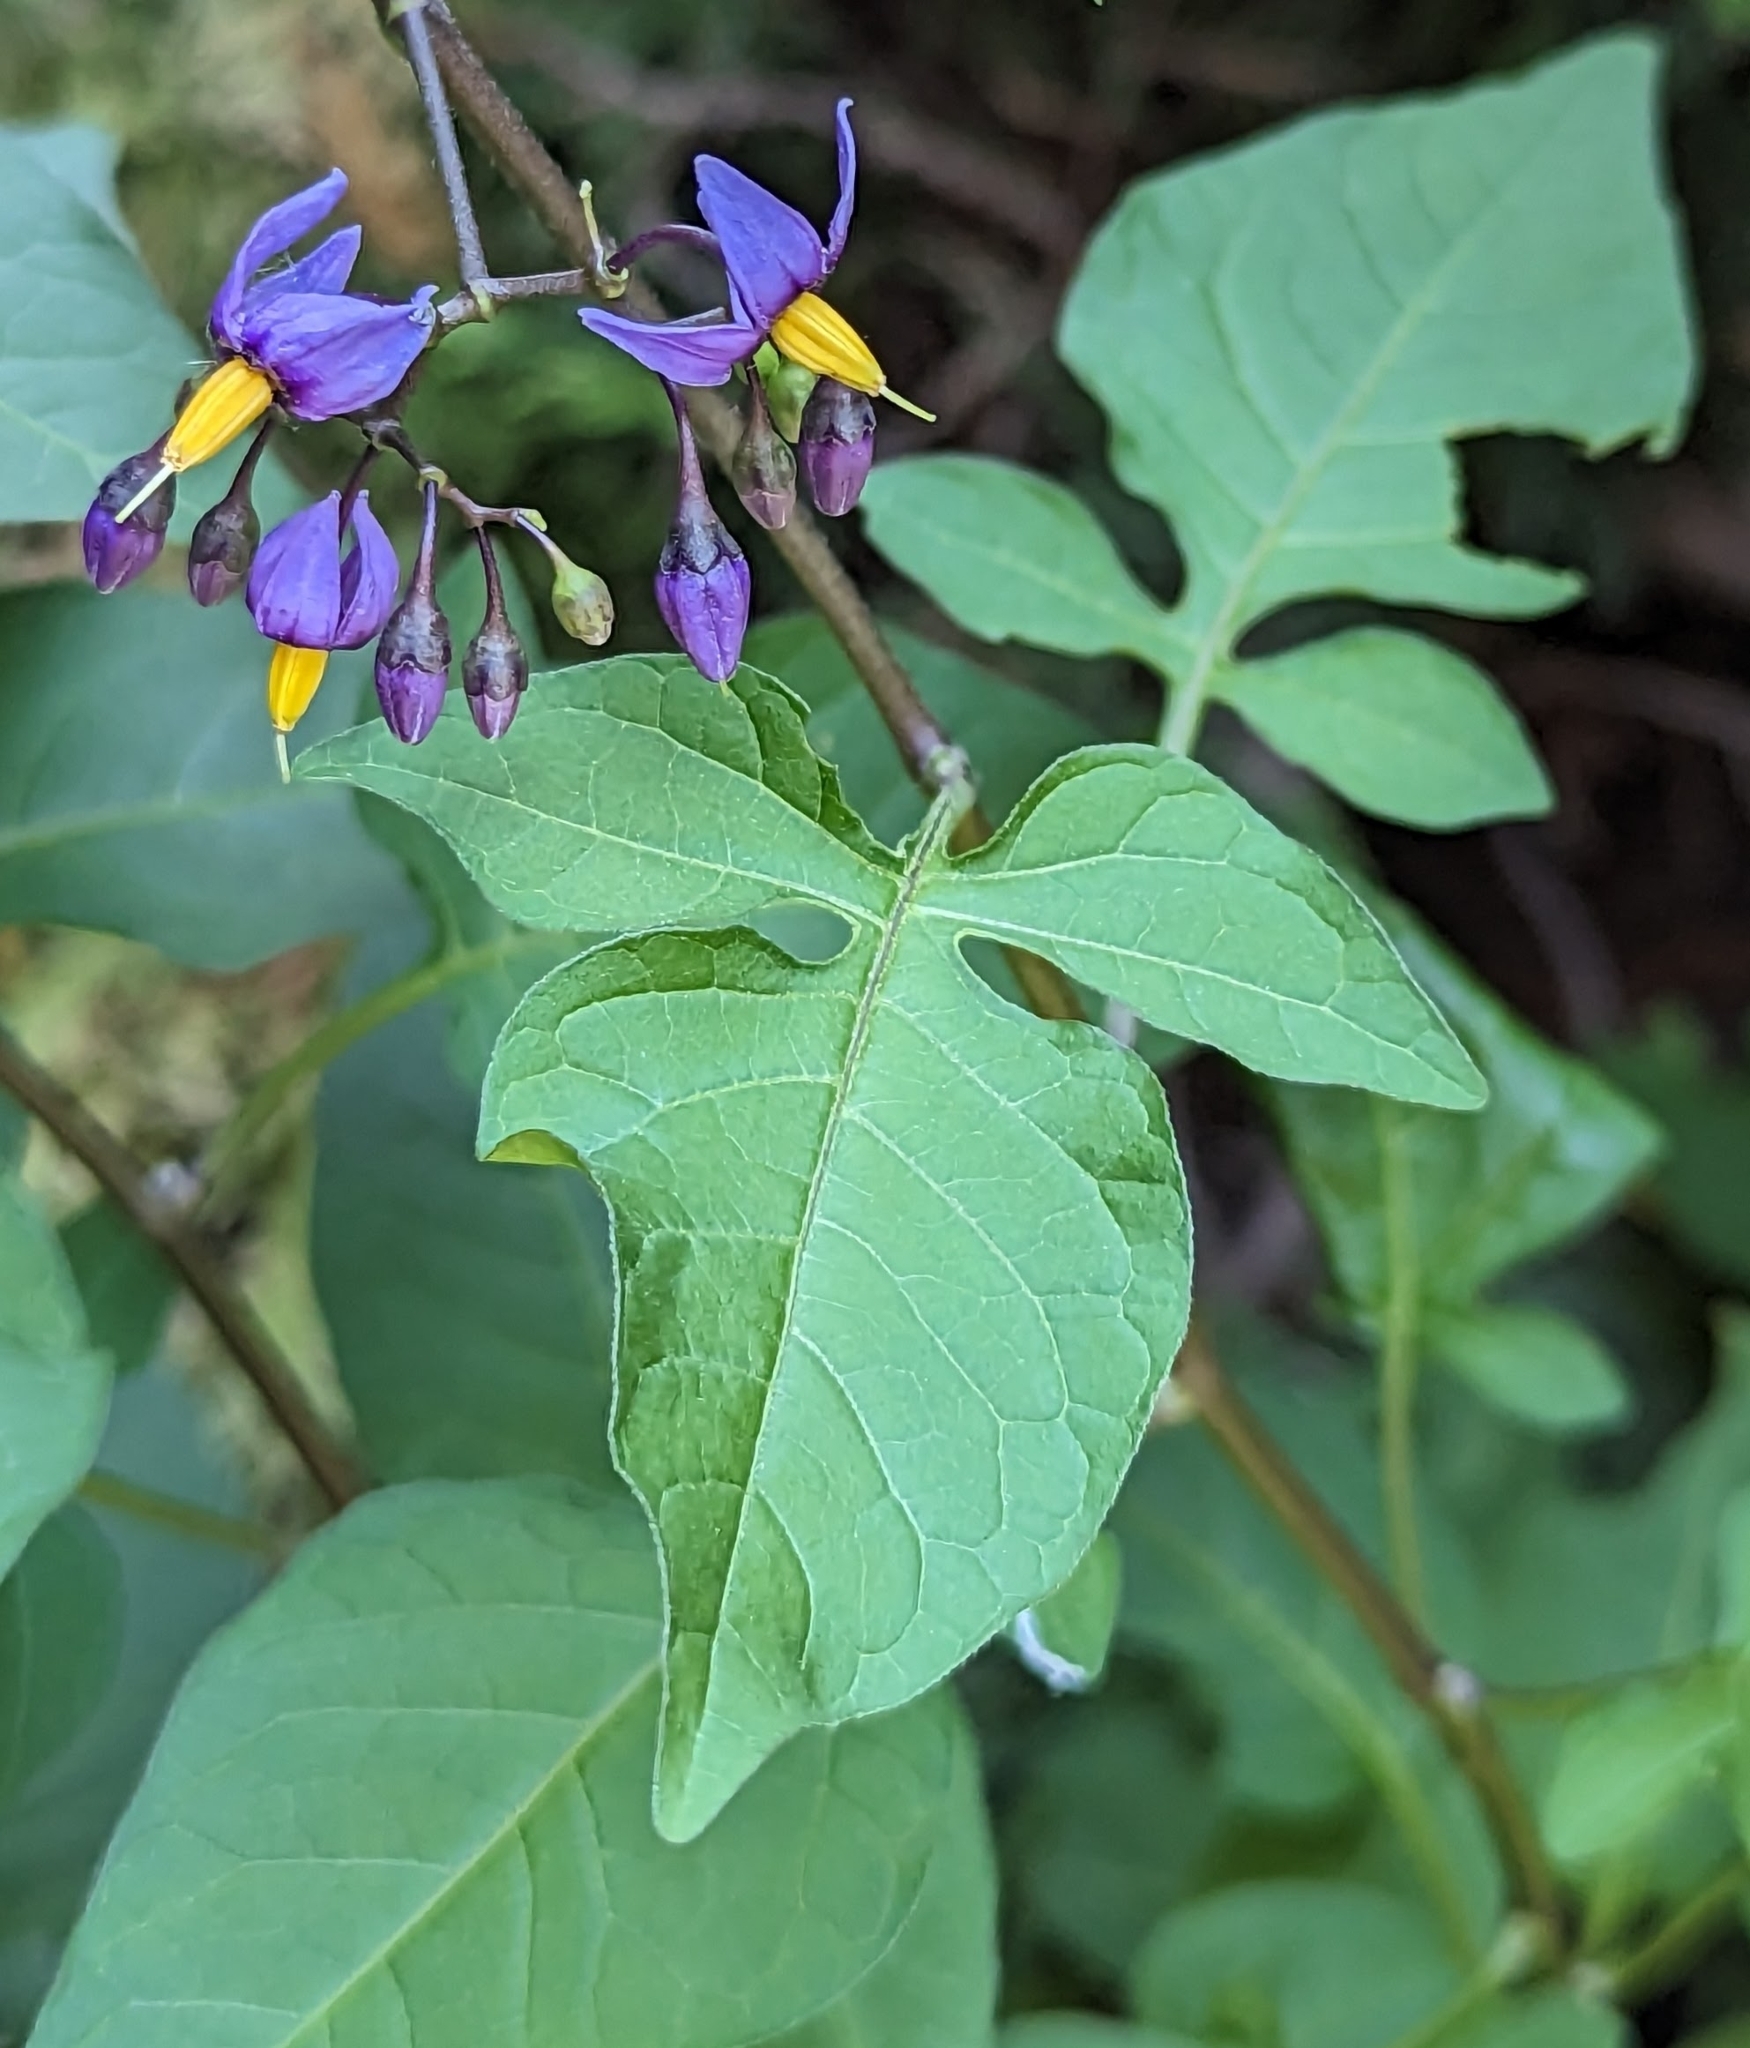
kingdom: Plantae
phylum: Tracheophyta
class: Magnoliopsida
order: Solanales
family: Solanaceae
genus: Solanum
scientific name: Solanum dulcamara
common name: Climbing nightshade
